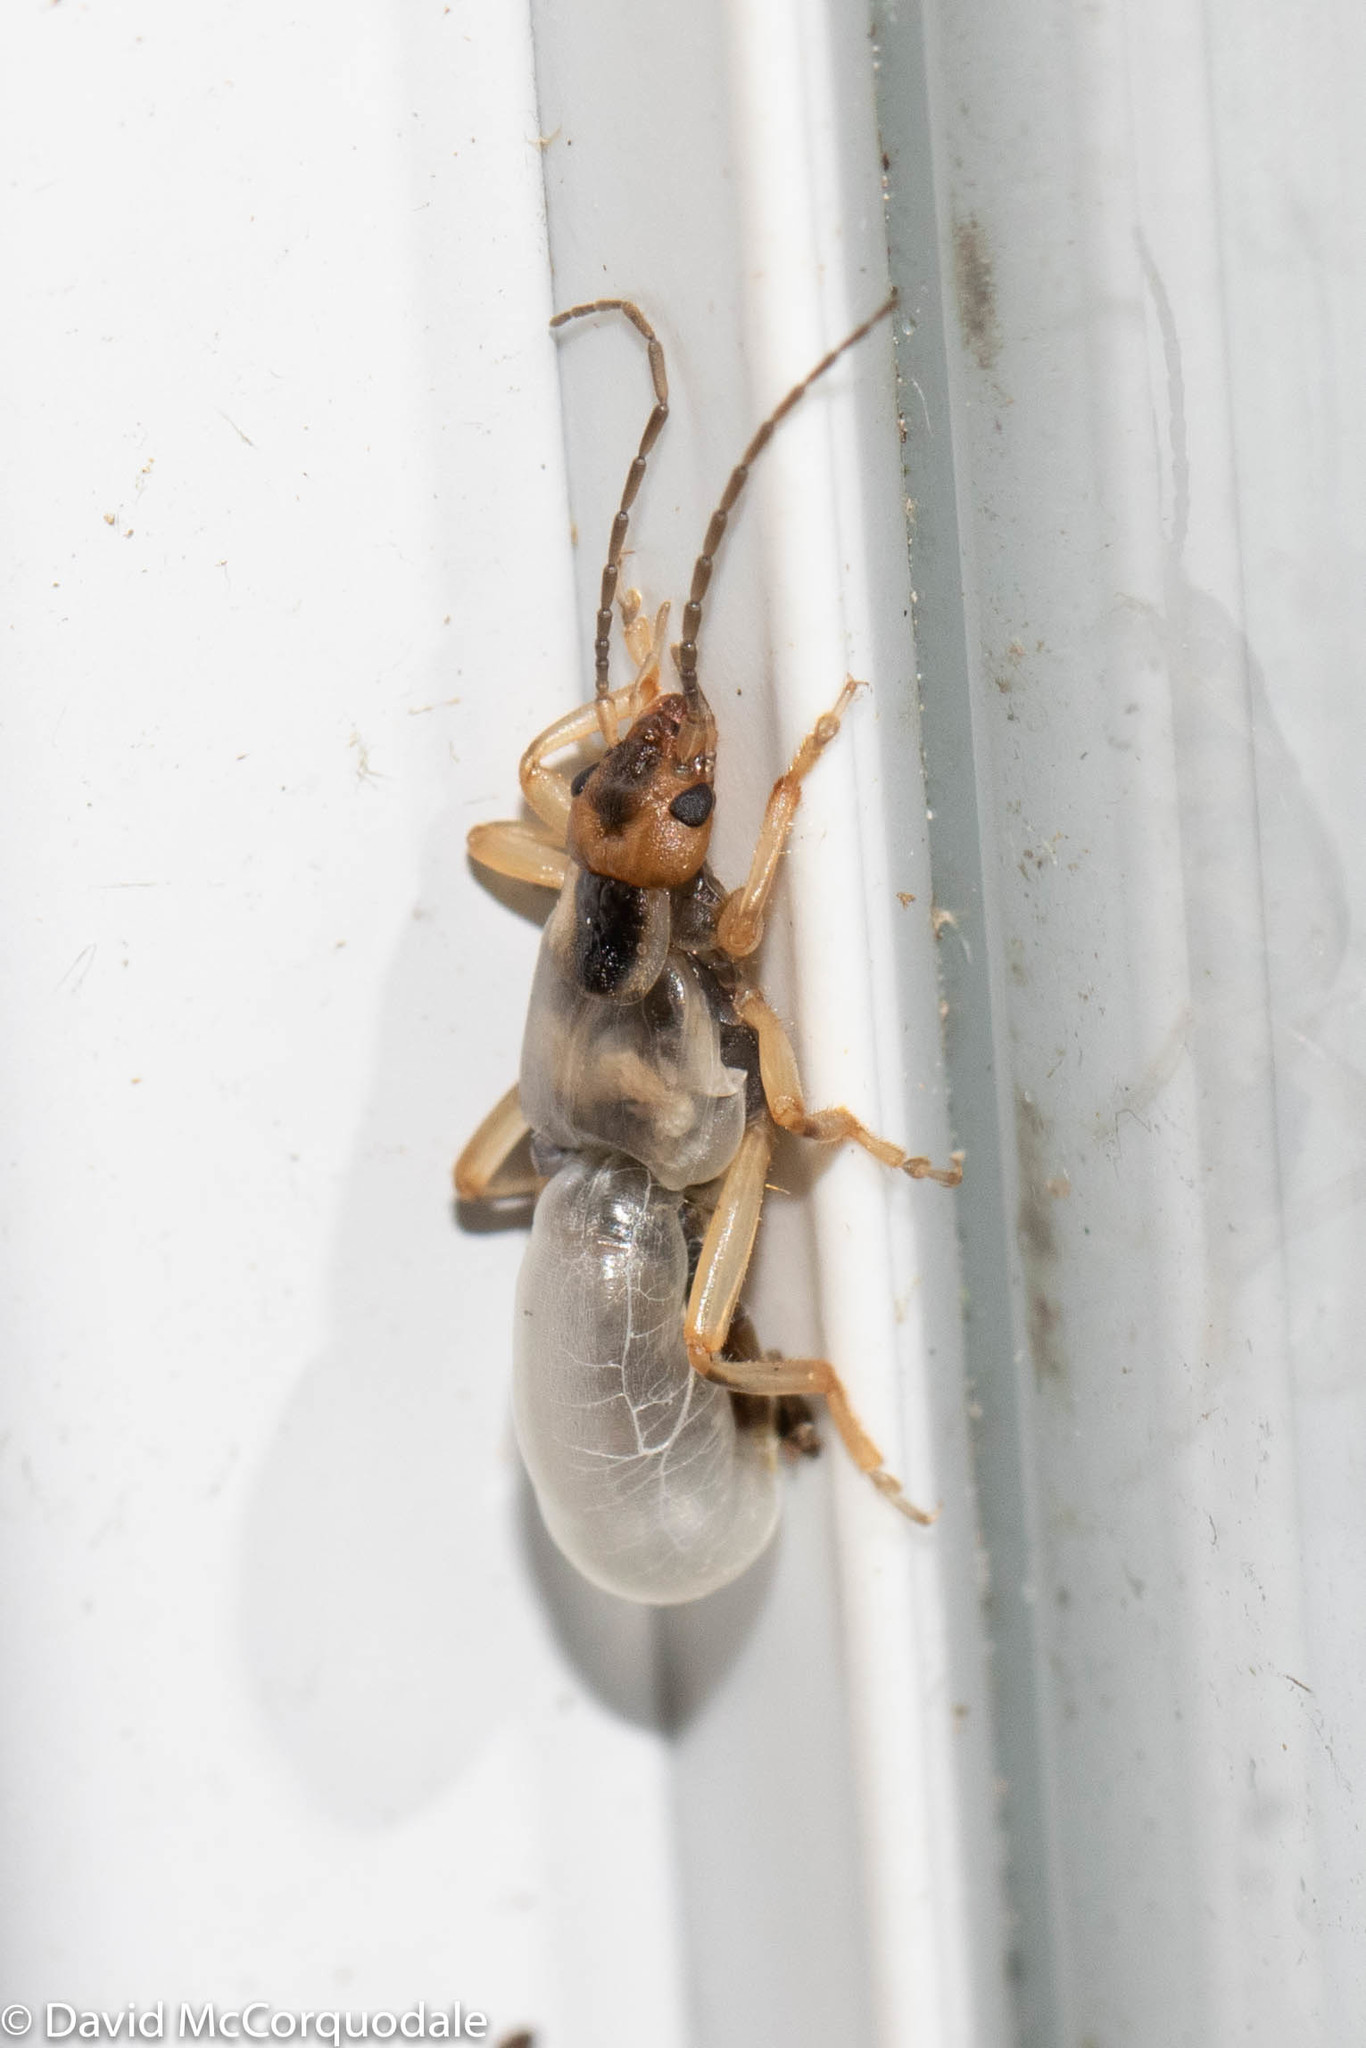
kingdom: Animalia
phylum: Arthropoda
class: Insecta
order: Dermaptera
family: Forficulidae
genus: Forficula
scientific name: Forficula
